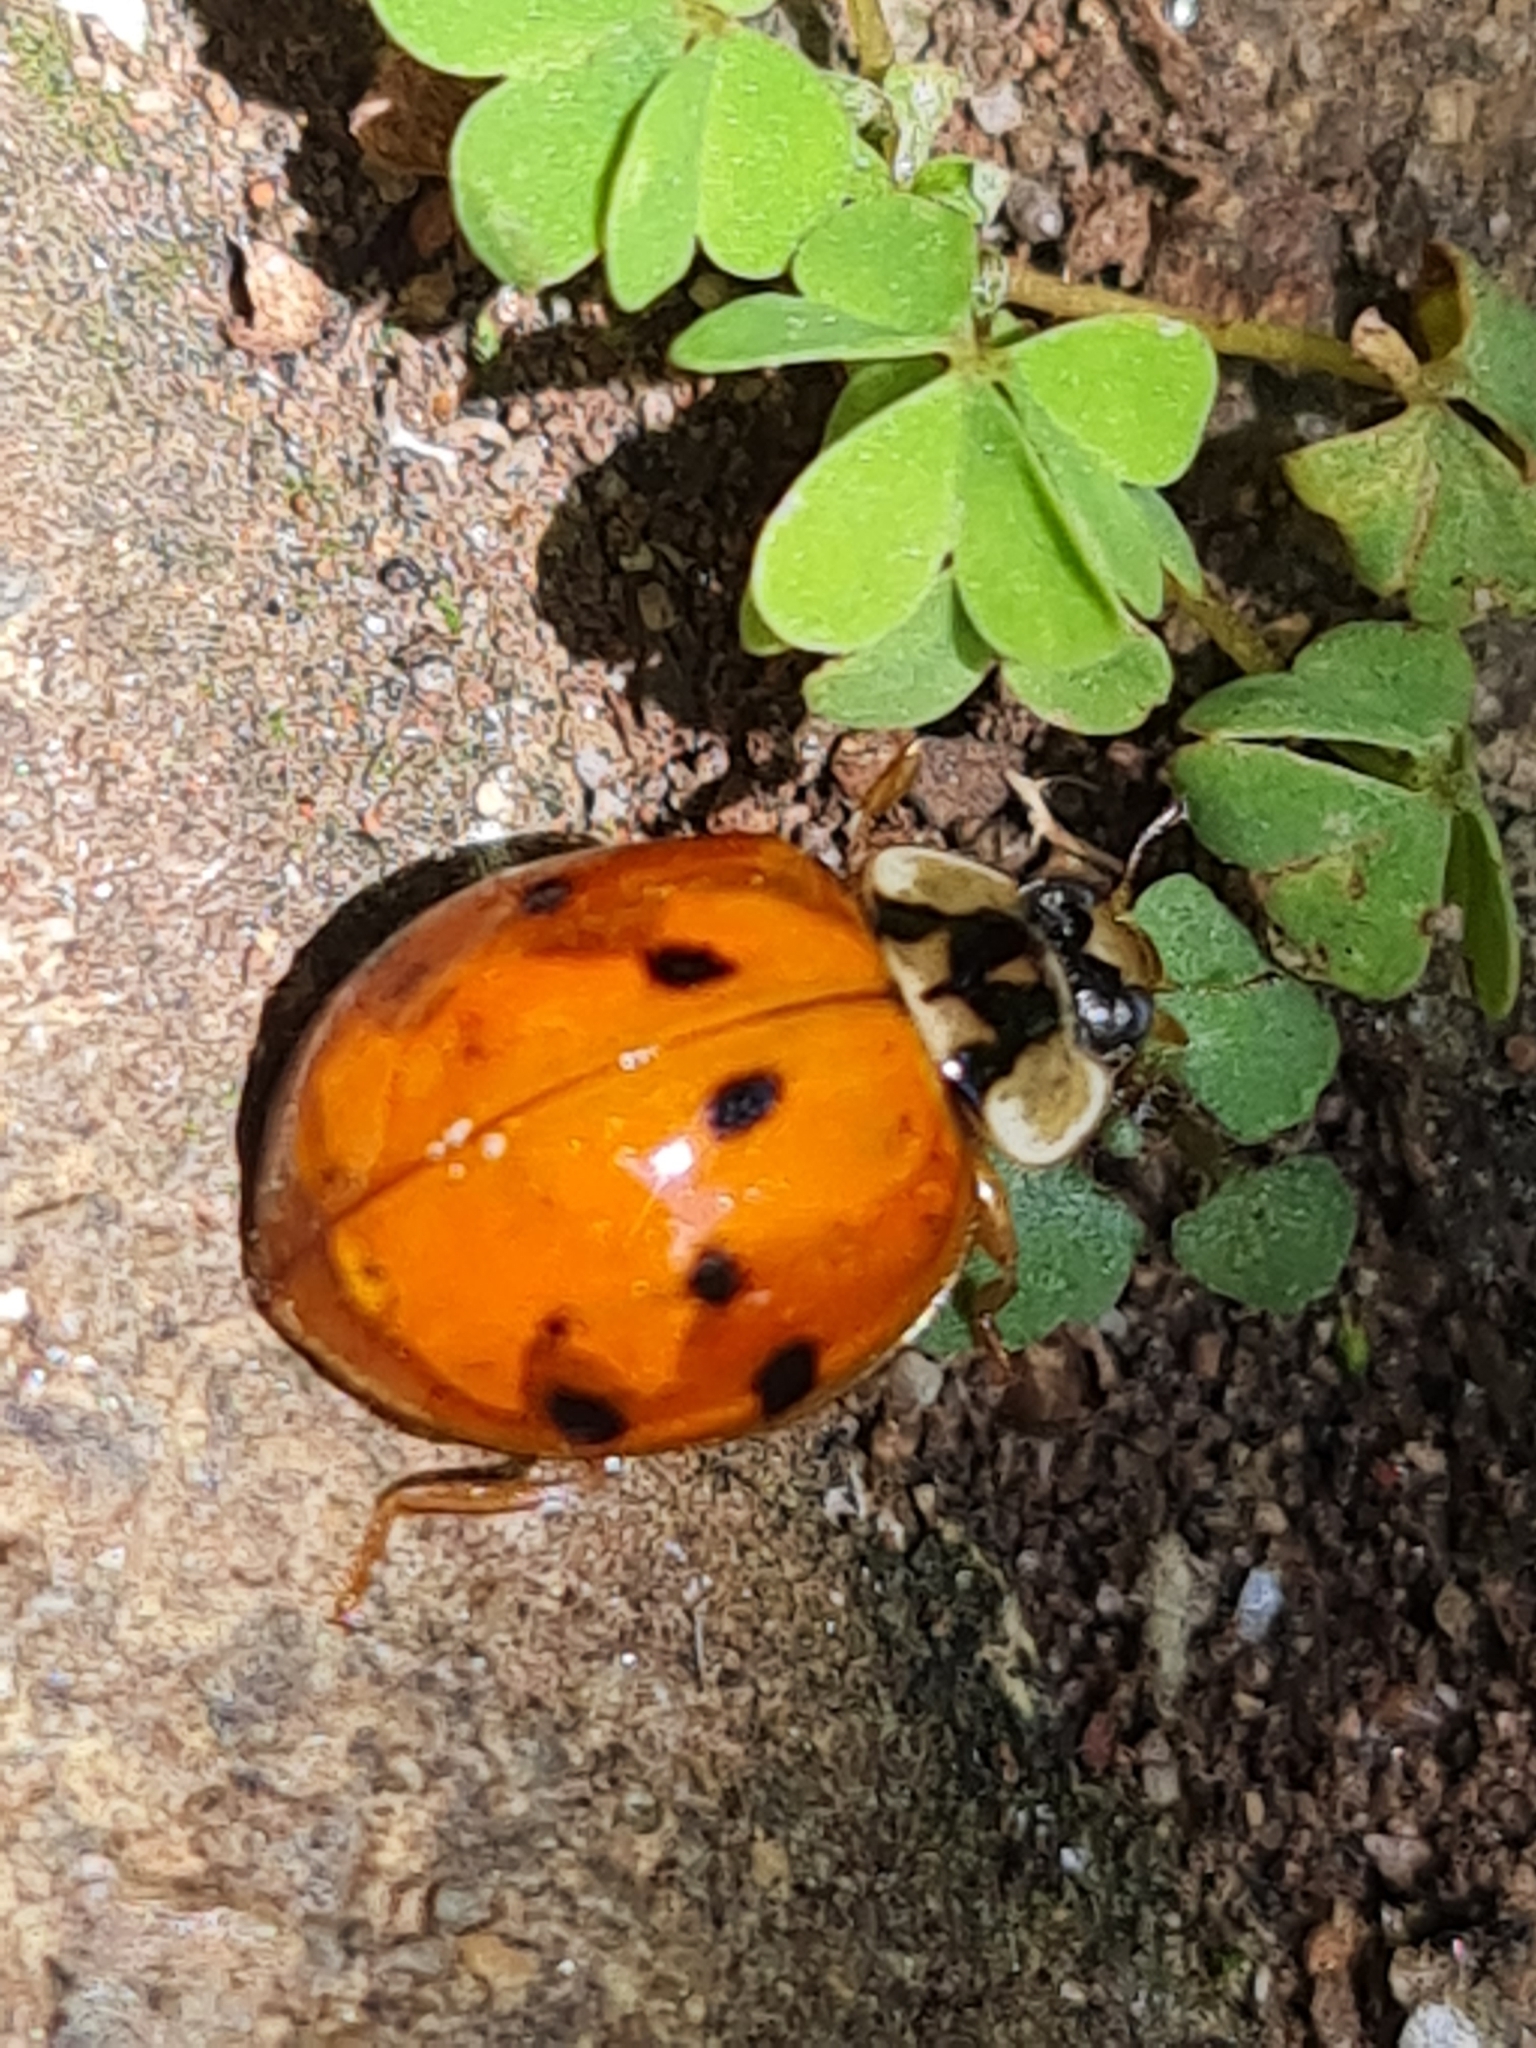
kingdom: Animalia
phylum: Arthropoda
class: Insecta
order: Coleoptera
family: Coccinellidae
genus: Harmonia
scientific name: Harmonia axyridis
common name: Harlequin ladybird
